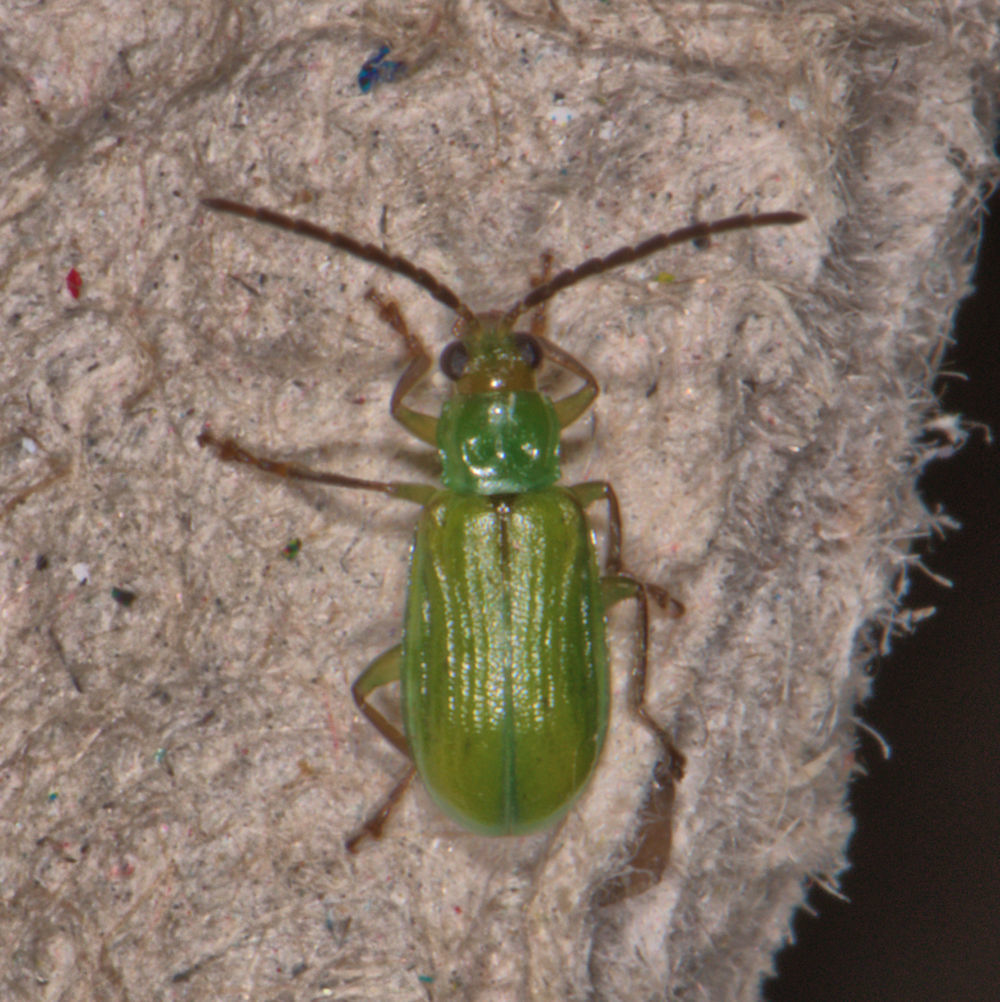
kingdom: Animalia
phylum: Arthropoda
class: Insecta
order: Coleoptera
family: Chrysomelidae
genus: Diabrotica
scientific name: Diabrotica barberi
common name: Northern corn rootworm
